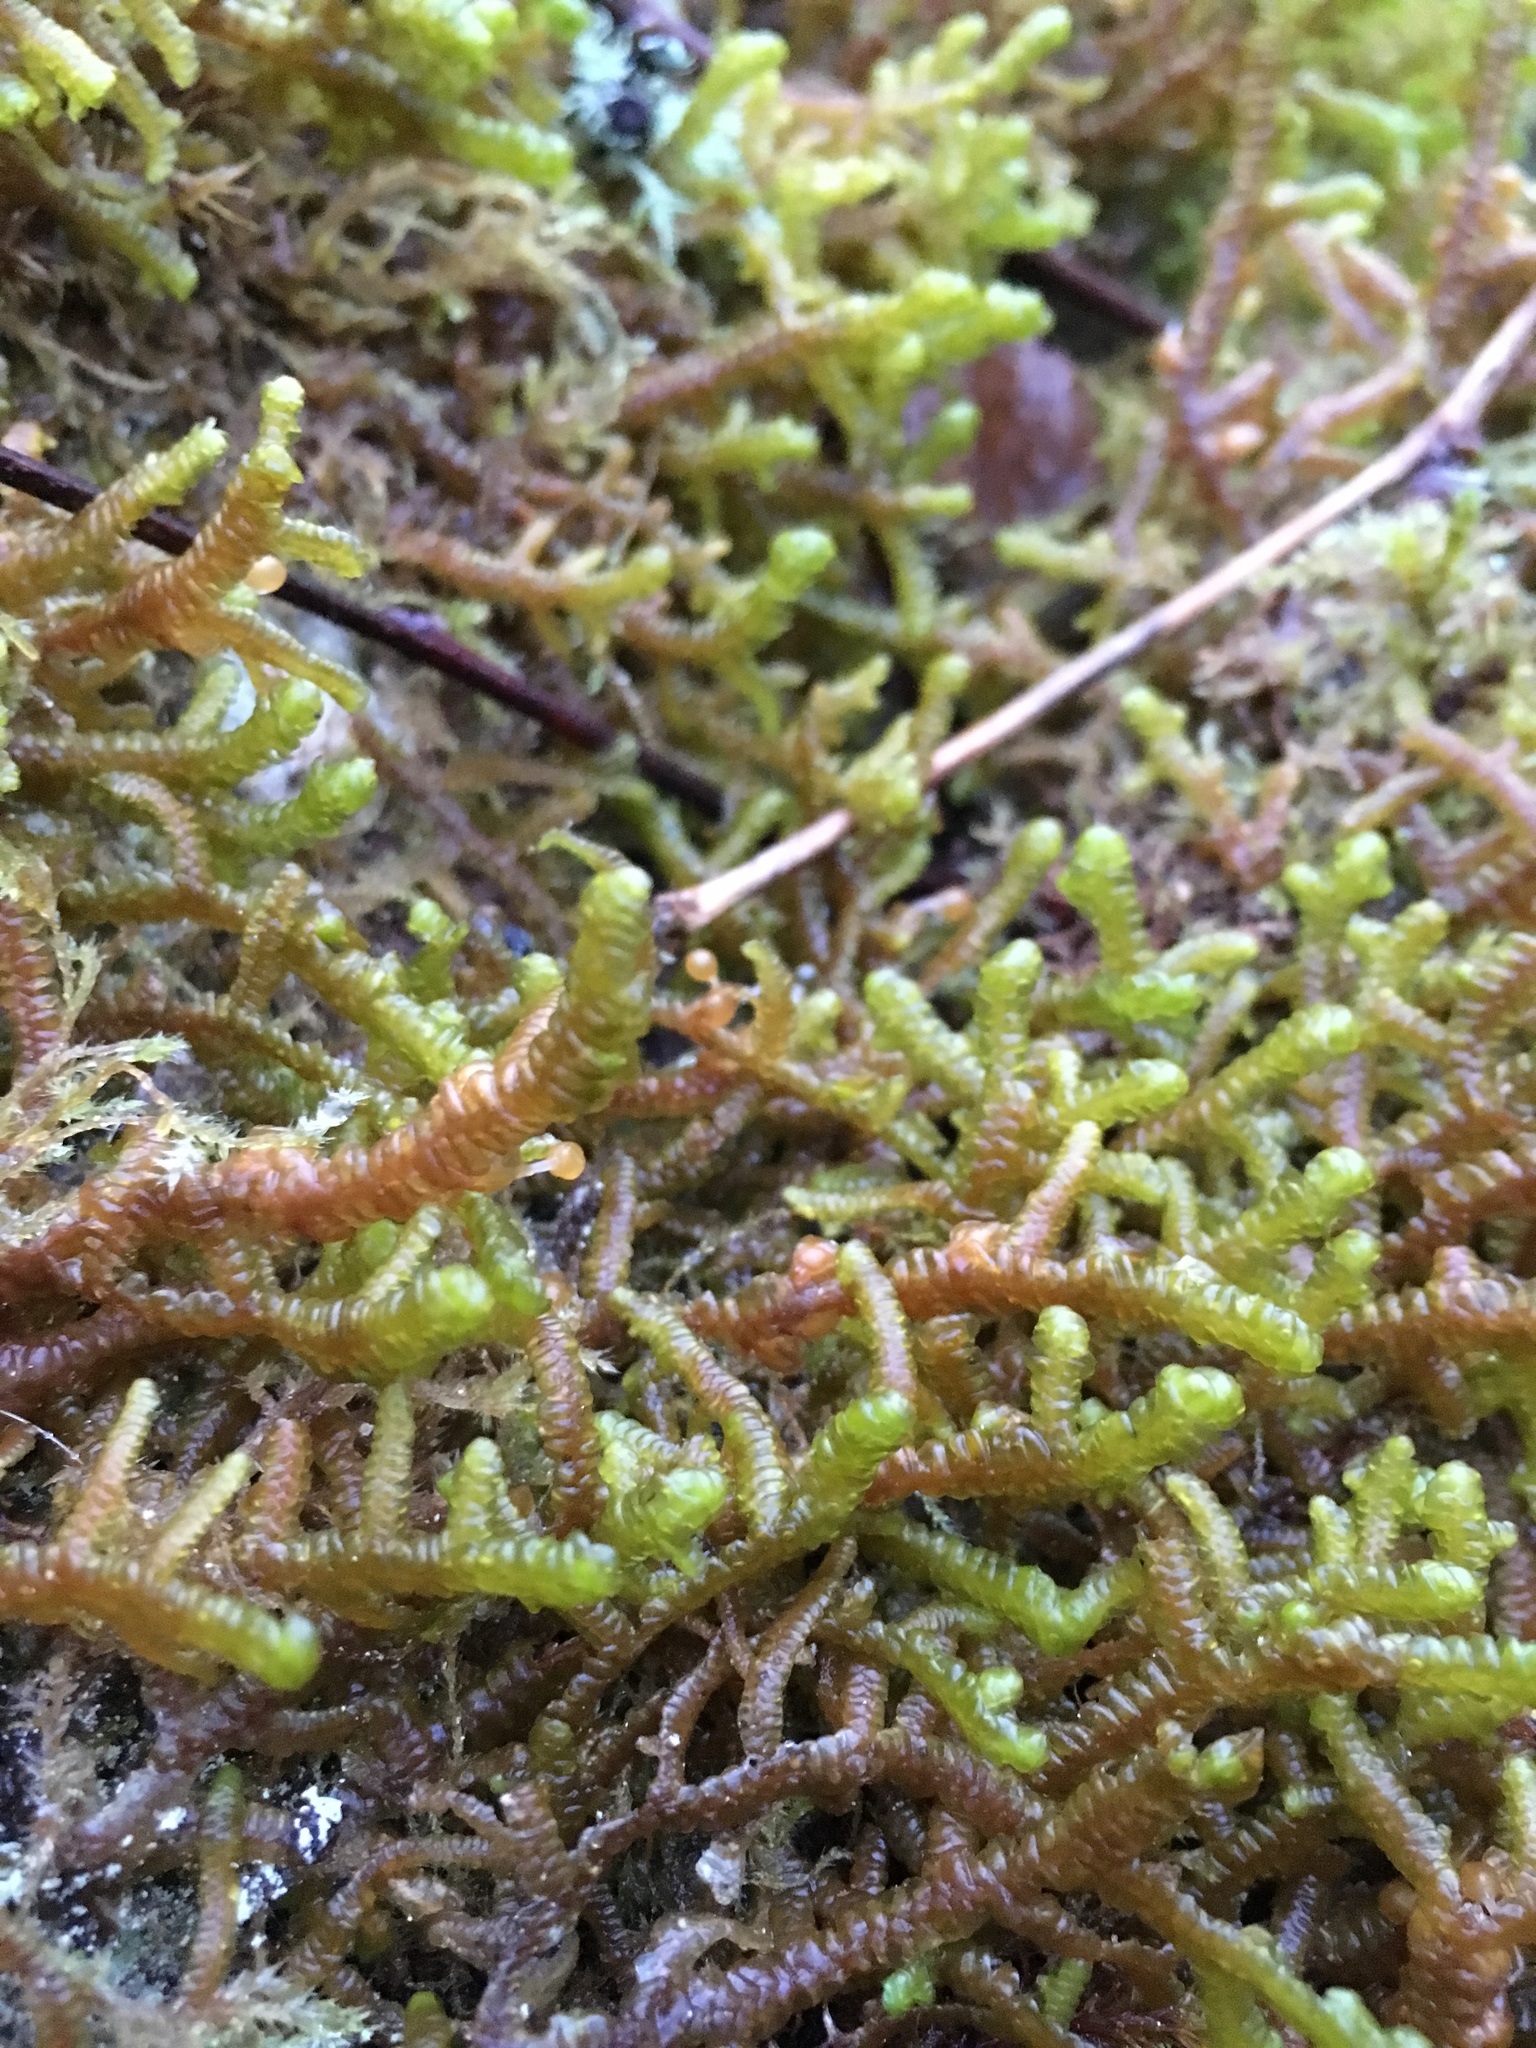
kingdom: Plantae
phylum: Marchantiophyta
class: Jungermanniopsida
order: Porellales
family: Porellaceae
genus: Porella
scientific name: Porella navicularis
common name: Tree ruffle liverwort
